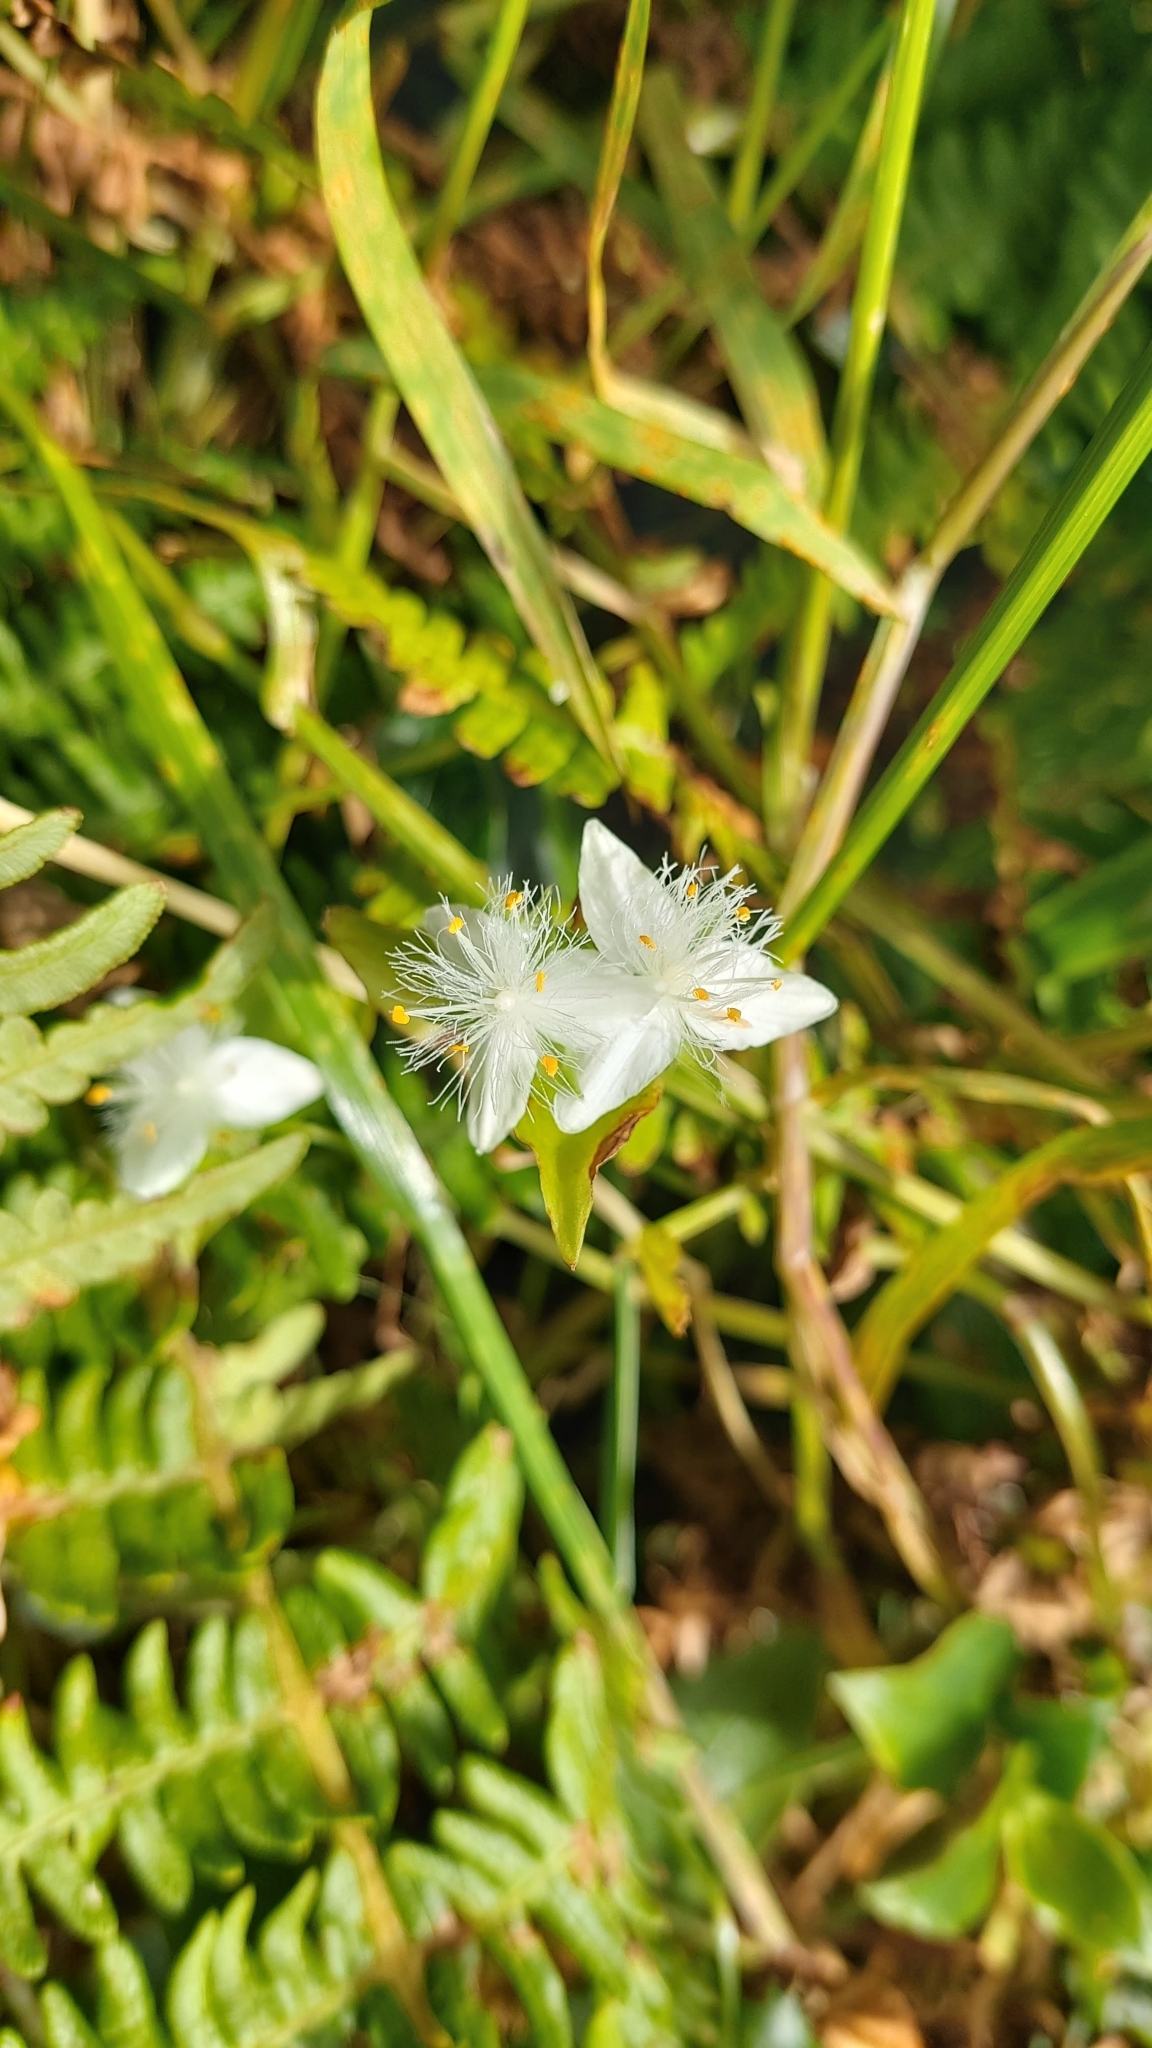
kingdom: Plantae
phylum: Tracheophyta
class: Liliopsida
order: Commelinales
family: Commelinaceae
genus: Tradescantia
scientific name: Tradescantia fluminensis
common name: Wandering-jew
